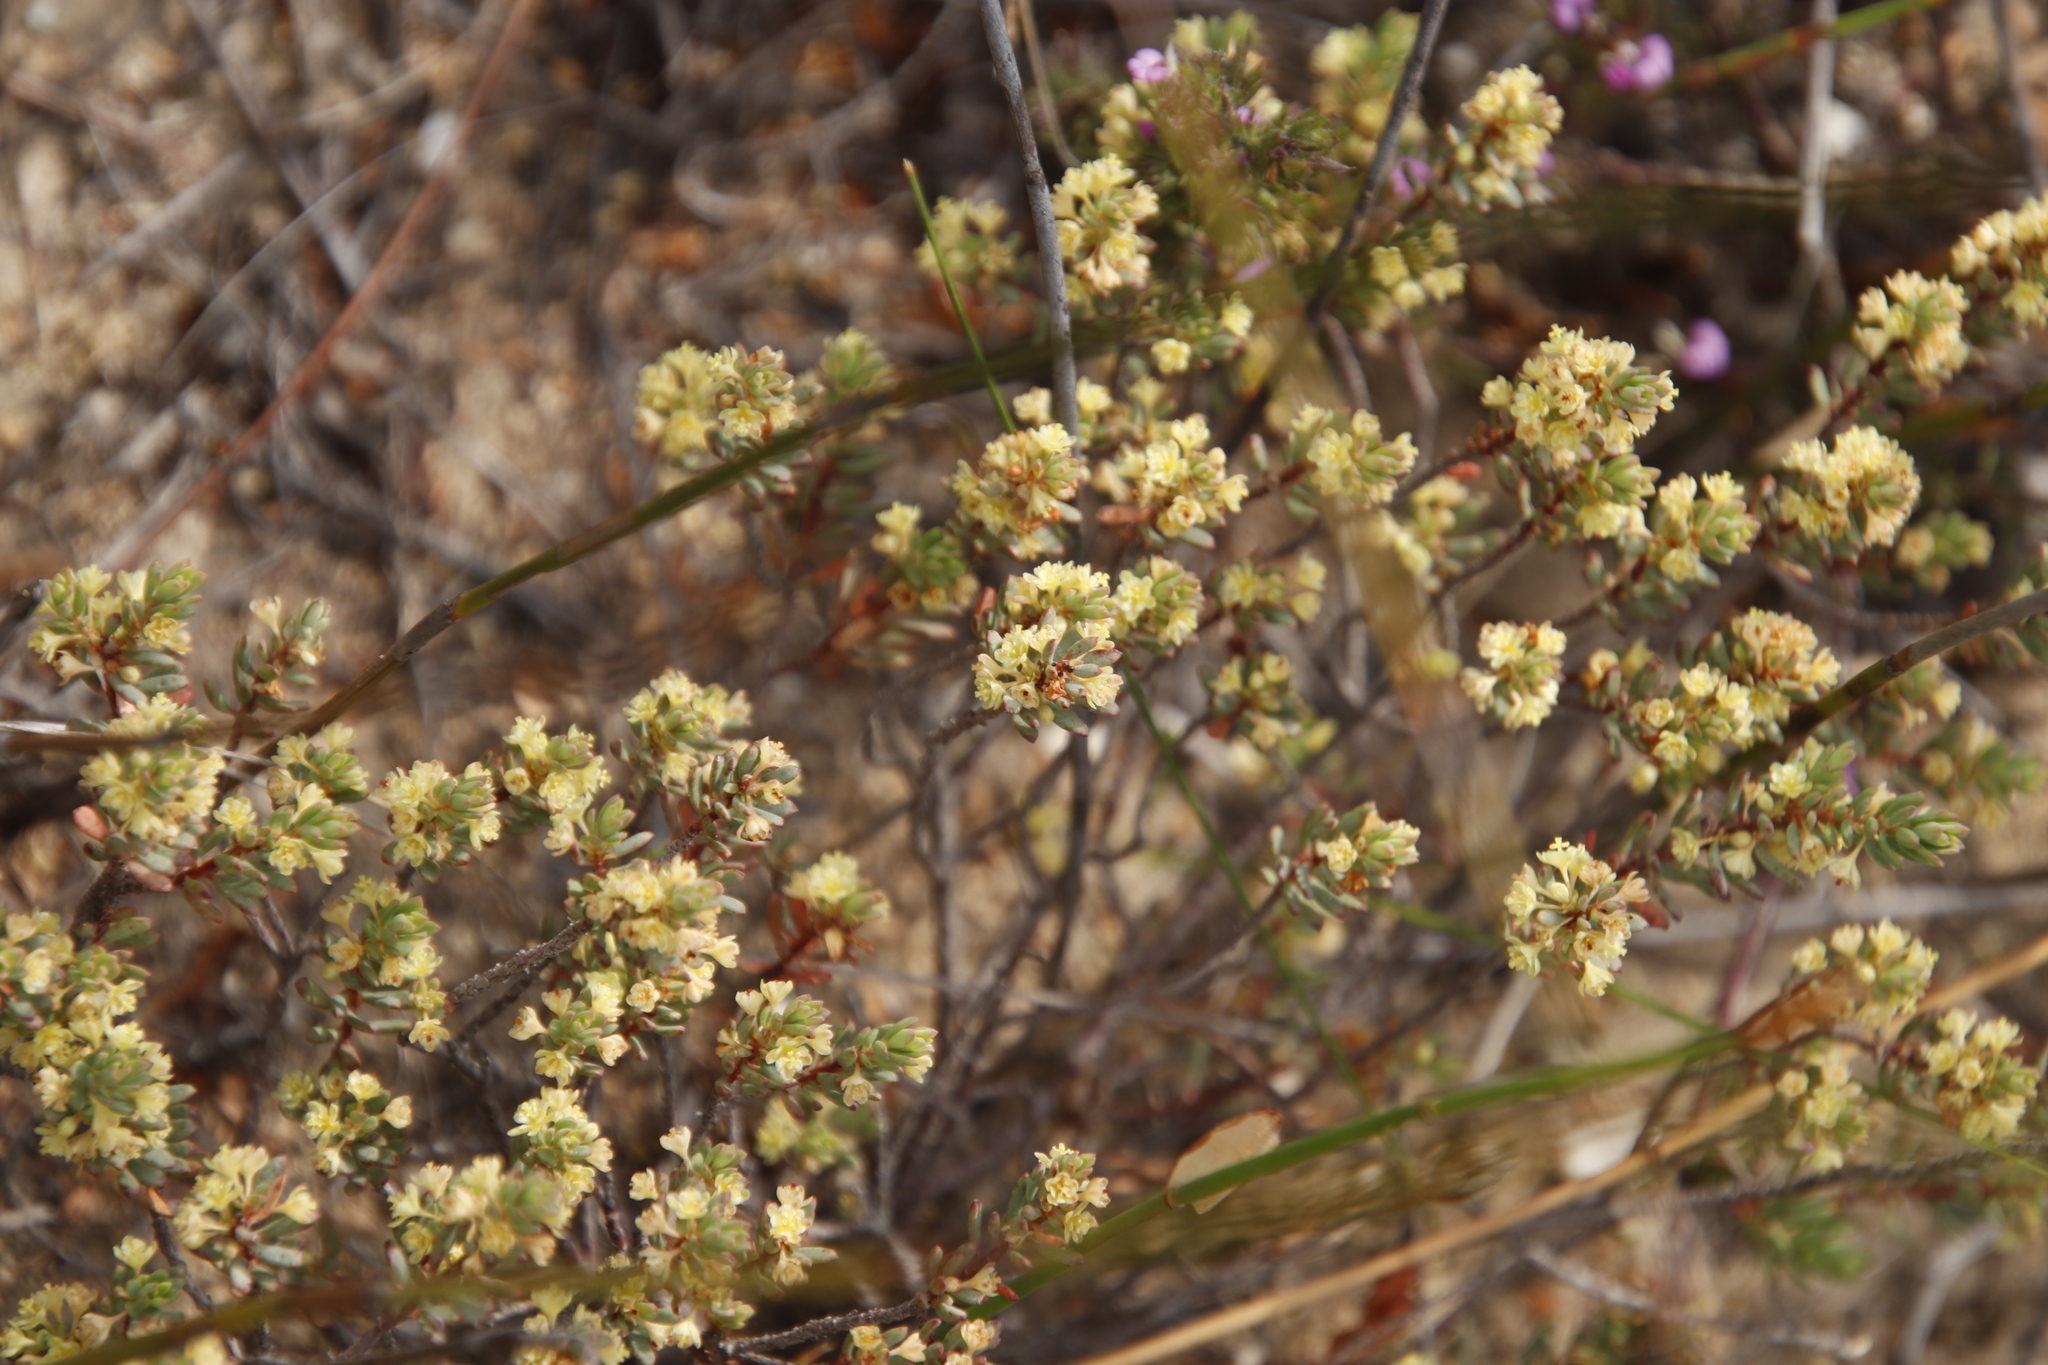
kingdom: Plantae
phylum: Tracheophyta
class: Magnoliopsida
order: Malpighiales
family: Peraceae
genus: Clutia
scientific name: Clutia laxa
